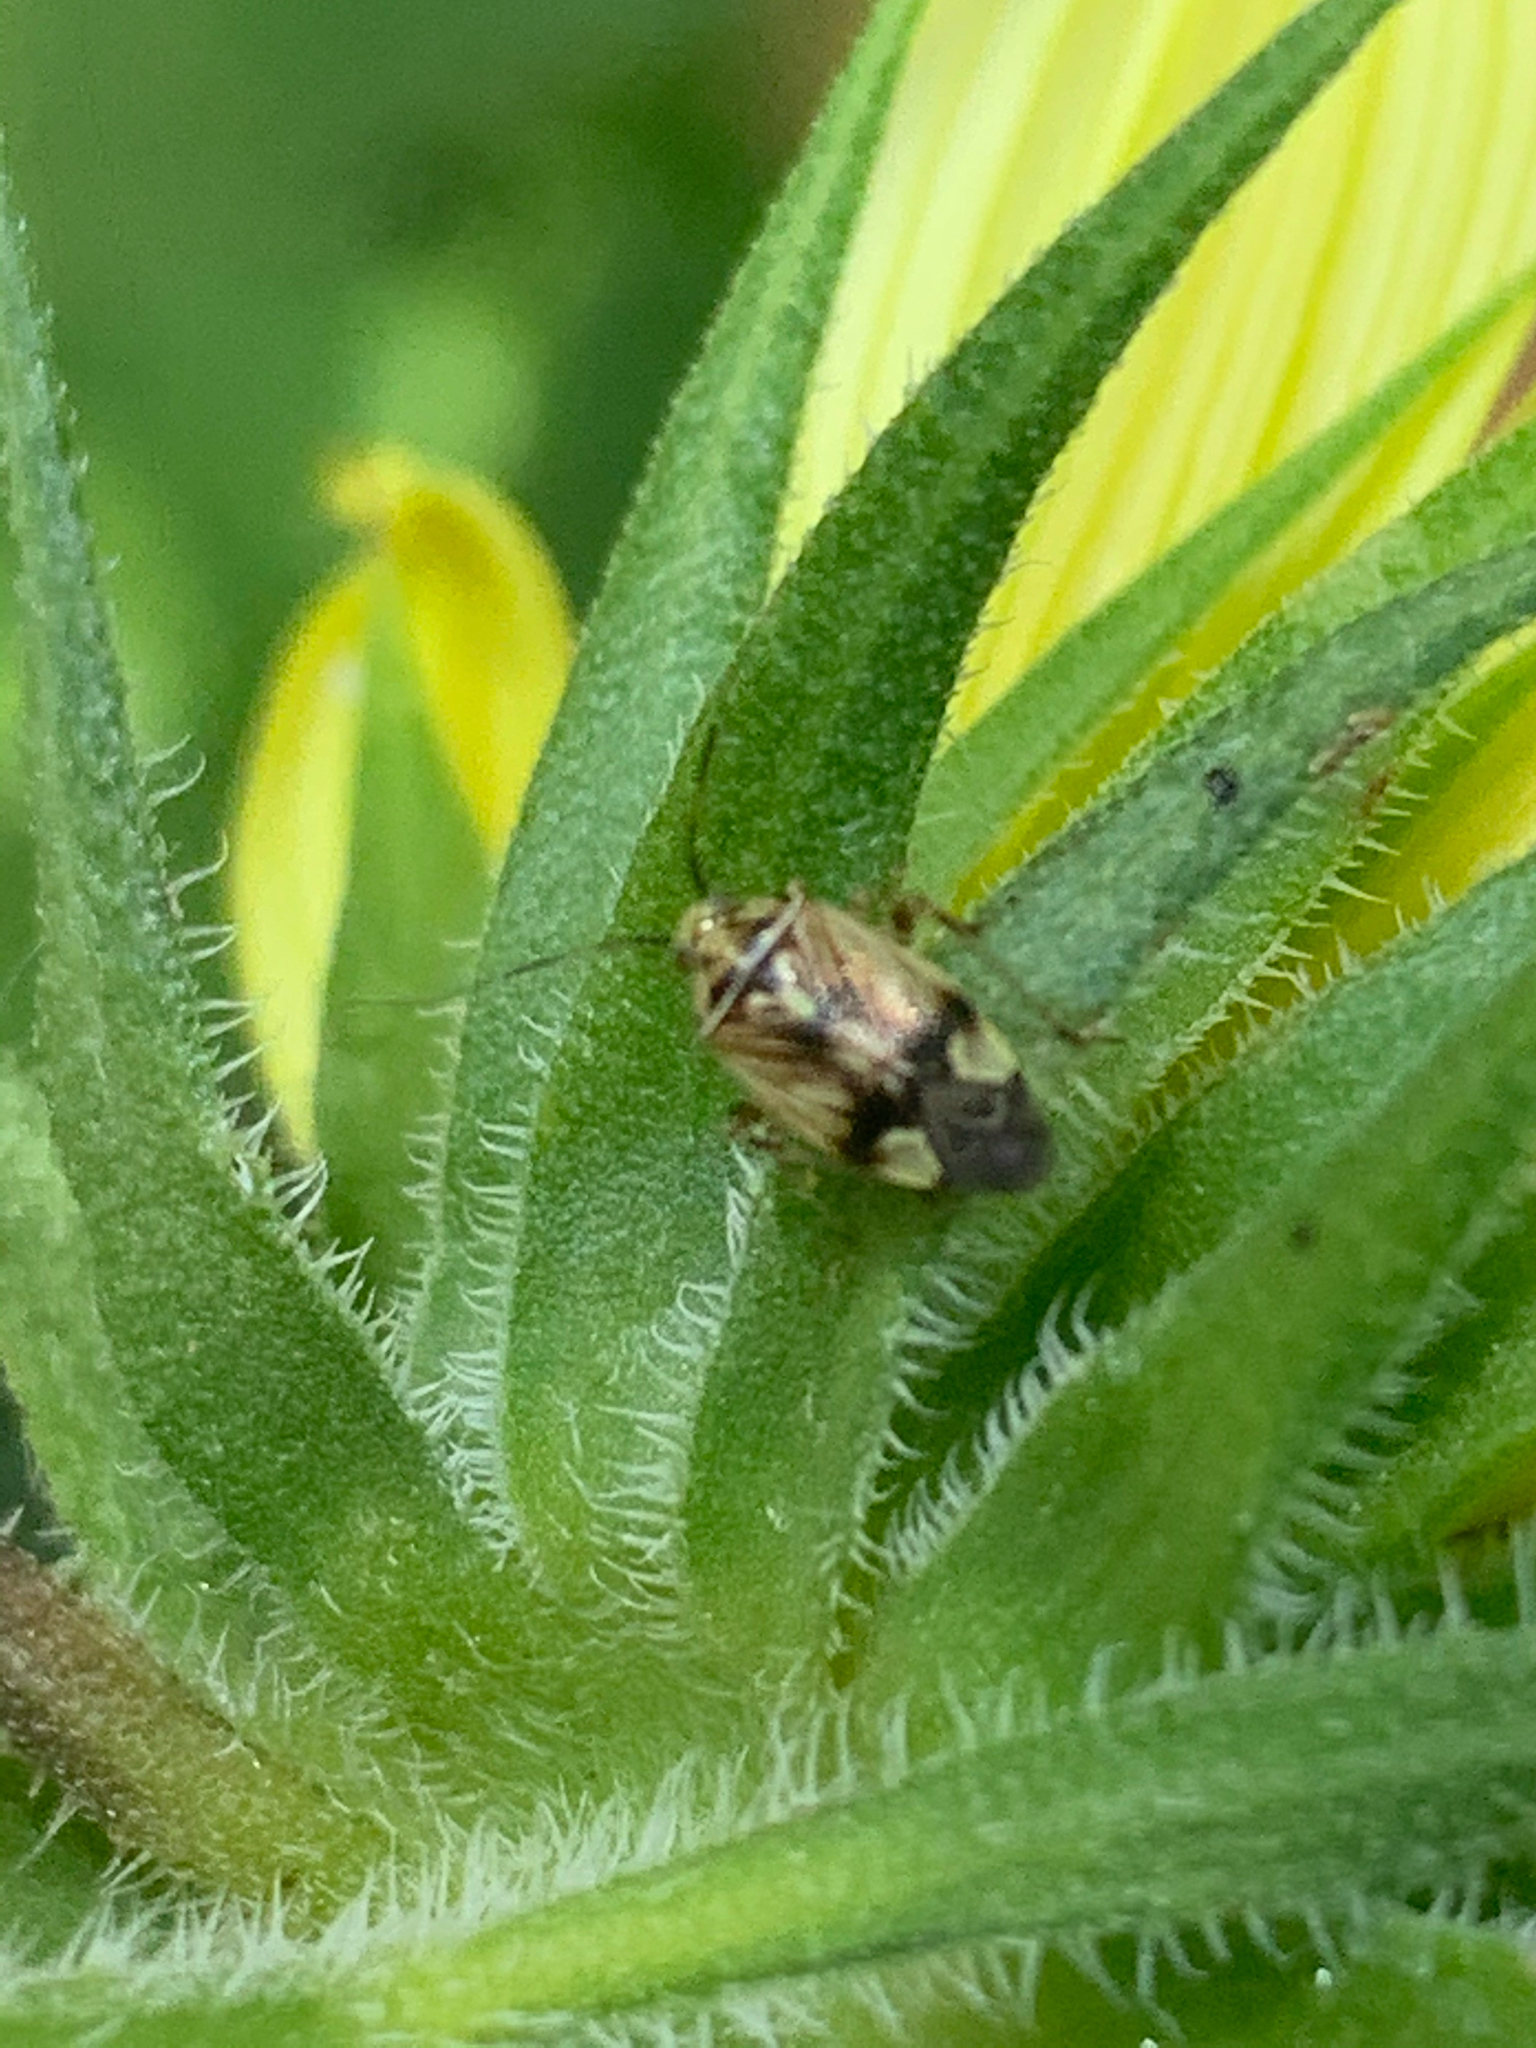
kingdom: Animalia
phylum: Arthropoda
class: Insecta
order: Hemiptera
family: Miridae
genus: Lygus
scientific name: Lygus lineolaris
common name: North american tarnished plant bug
